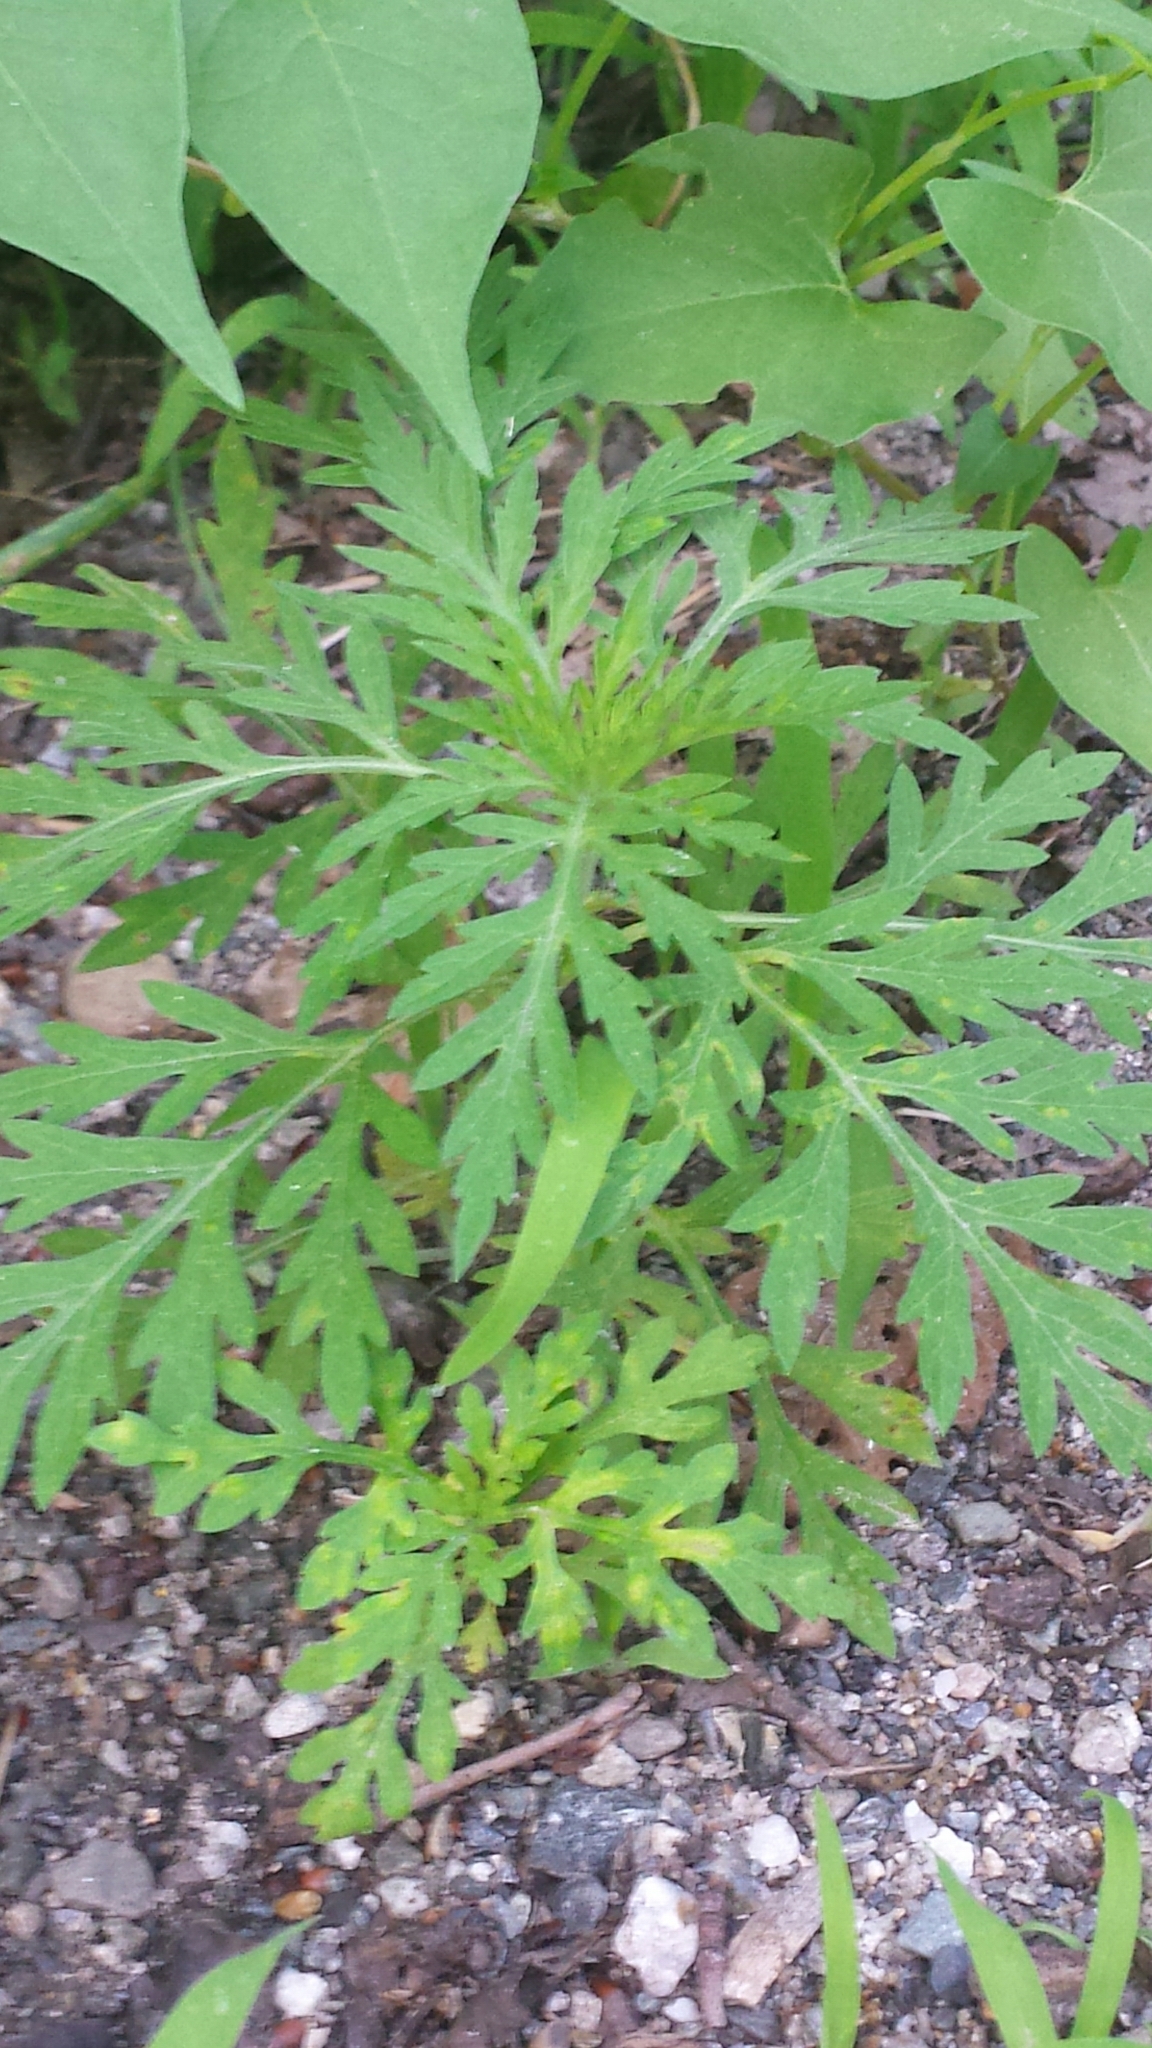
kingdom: Plantae
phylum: Tracheophyta
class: Magnoliopsida
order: Asterales
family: Asteraceae
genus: Ambrosia
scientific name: Ambrosia artemisiifolia
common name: Annual ragweed
